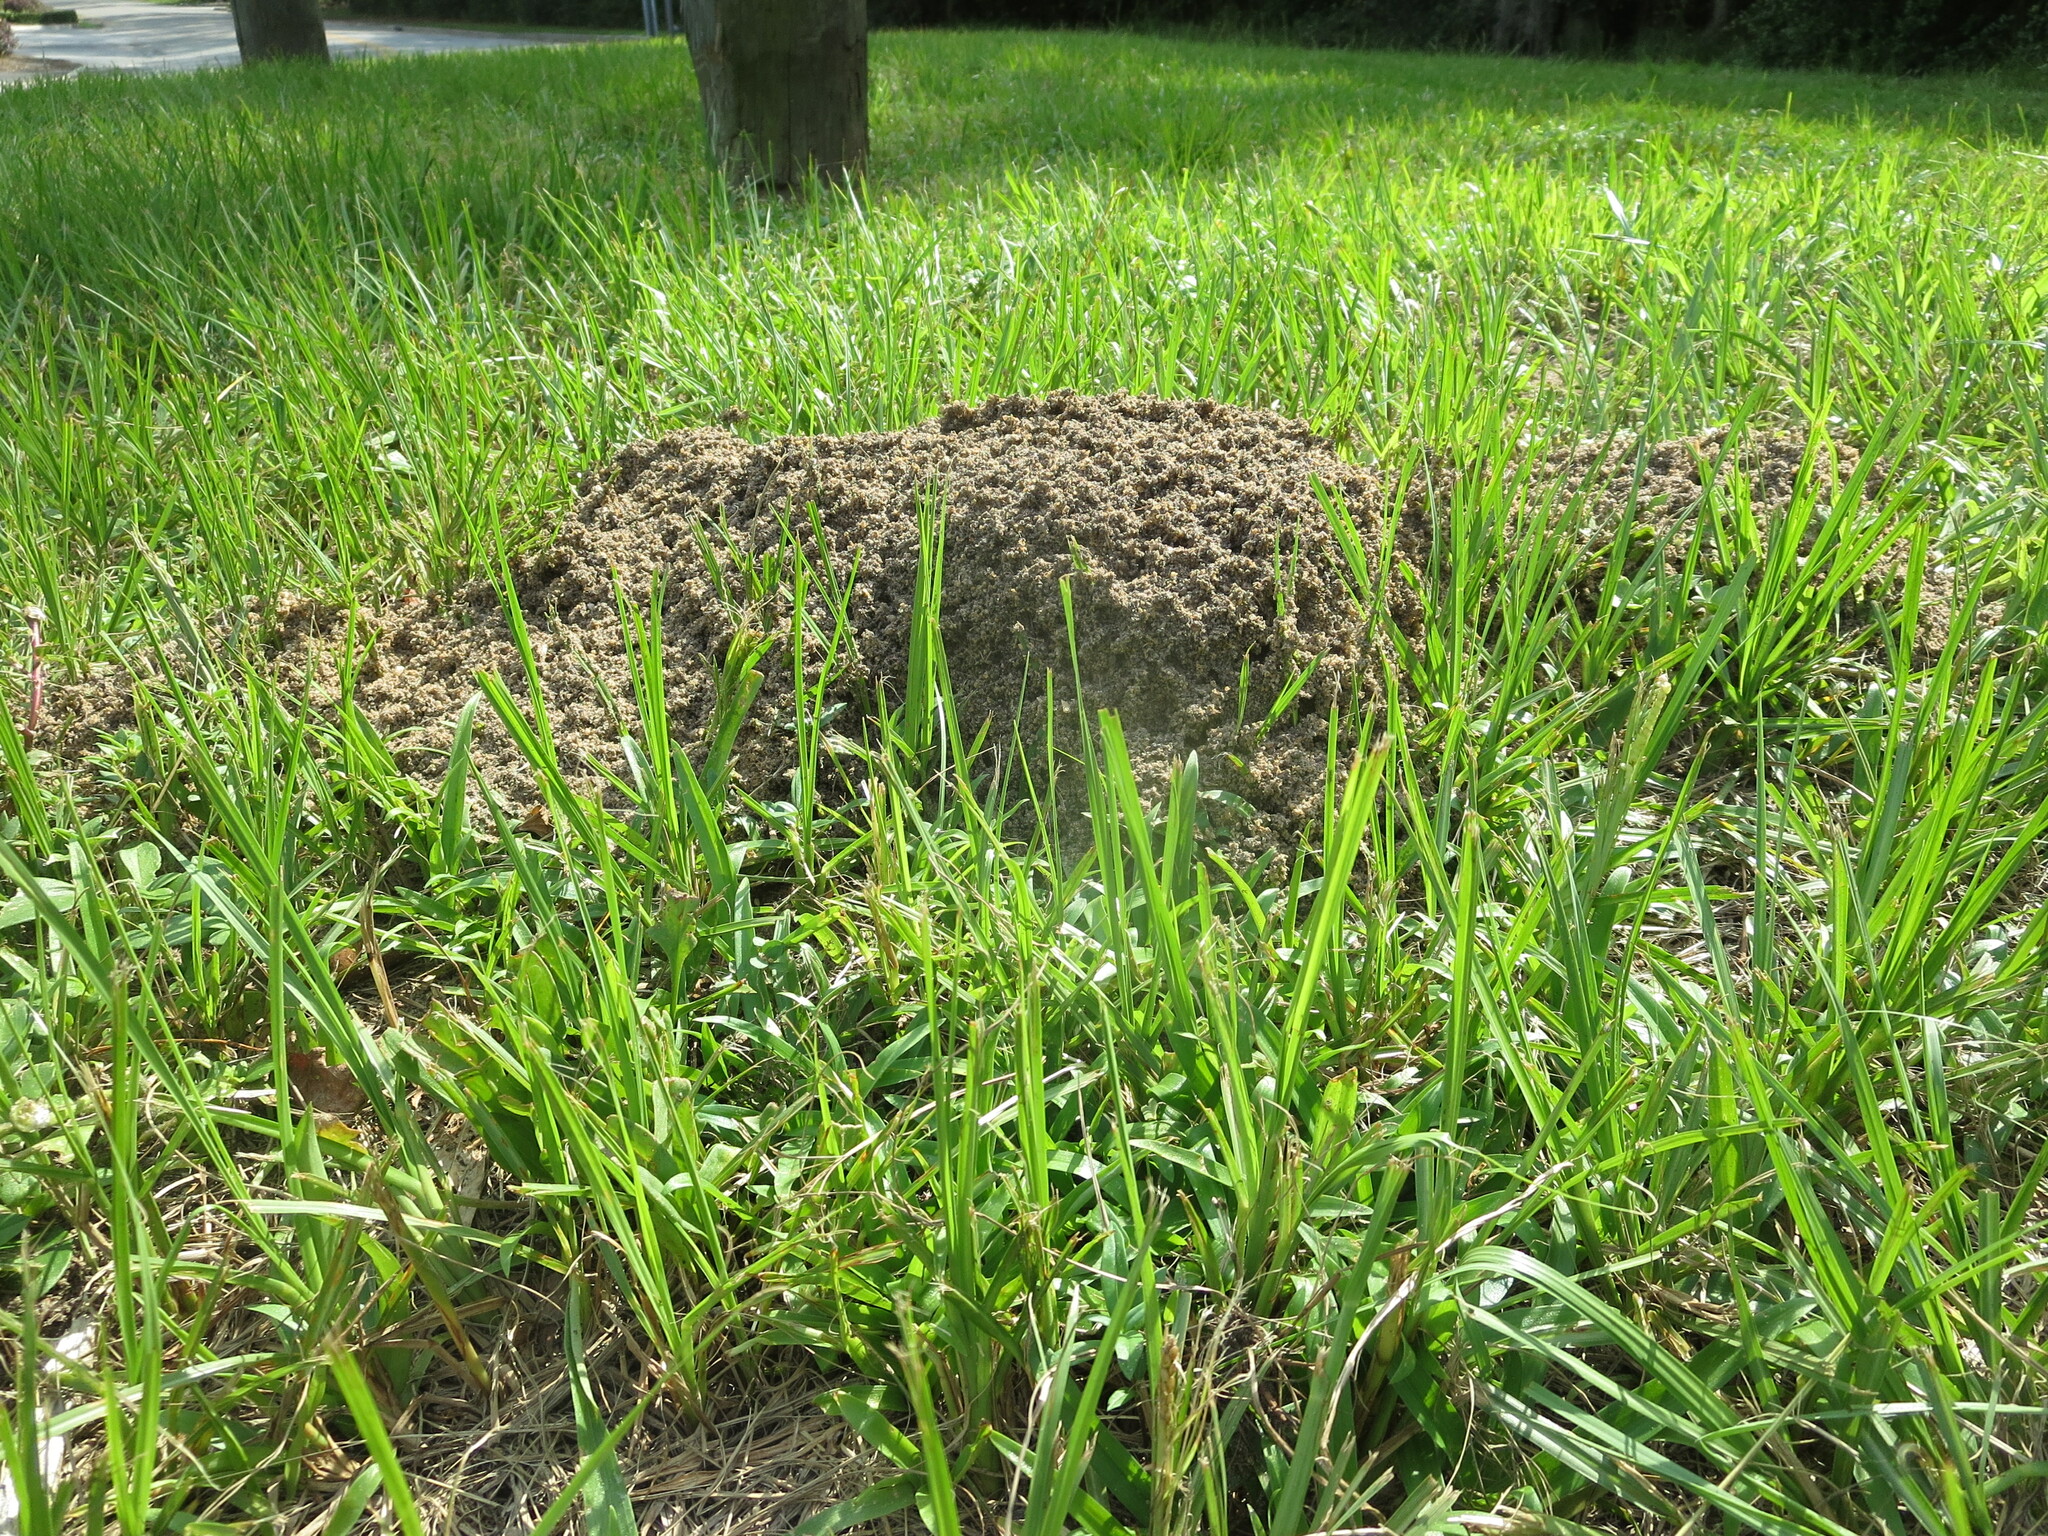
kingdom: Animalia
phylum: Arthropoda
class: Insecta
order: Hymenoptera
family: Formicidae
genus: Solenopsis
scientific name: Solenopsis invicta
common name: Red imported fire ant
